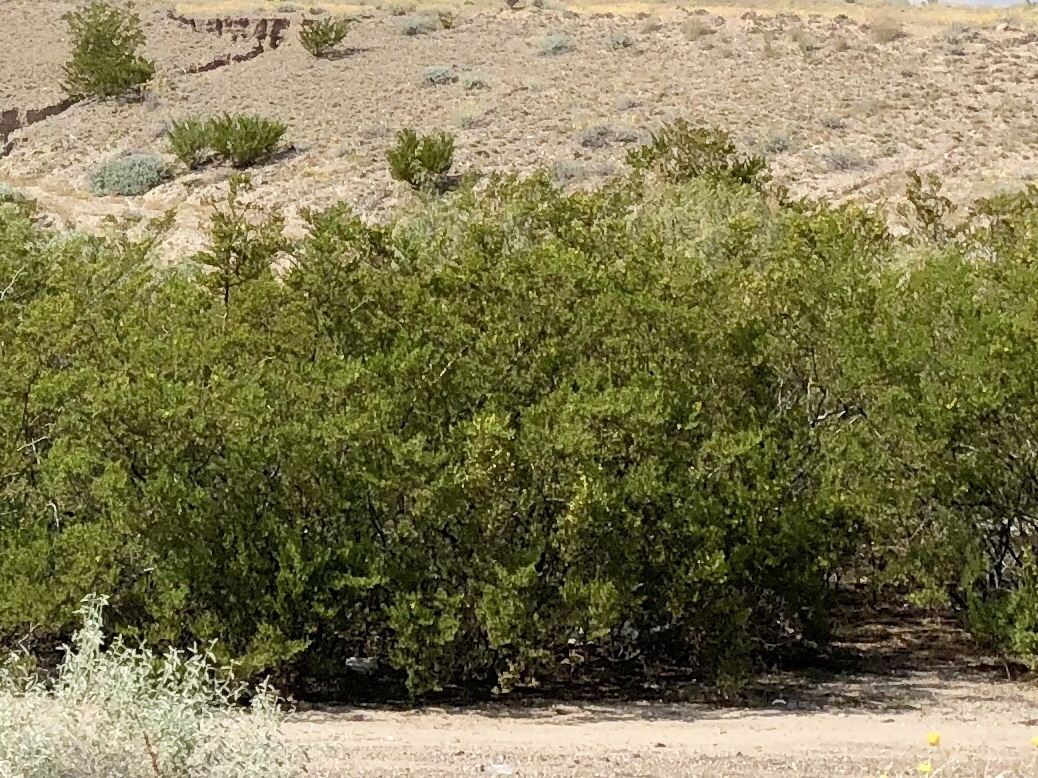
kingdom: Plantae
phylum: Tracheophyta
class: Magnoliopsida
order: Zygophyllales
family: Zygophyllaceae
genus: Larrea
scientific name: Larrea tridentata
